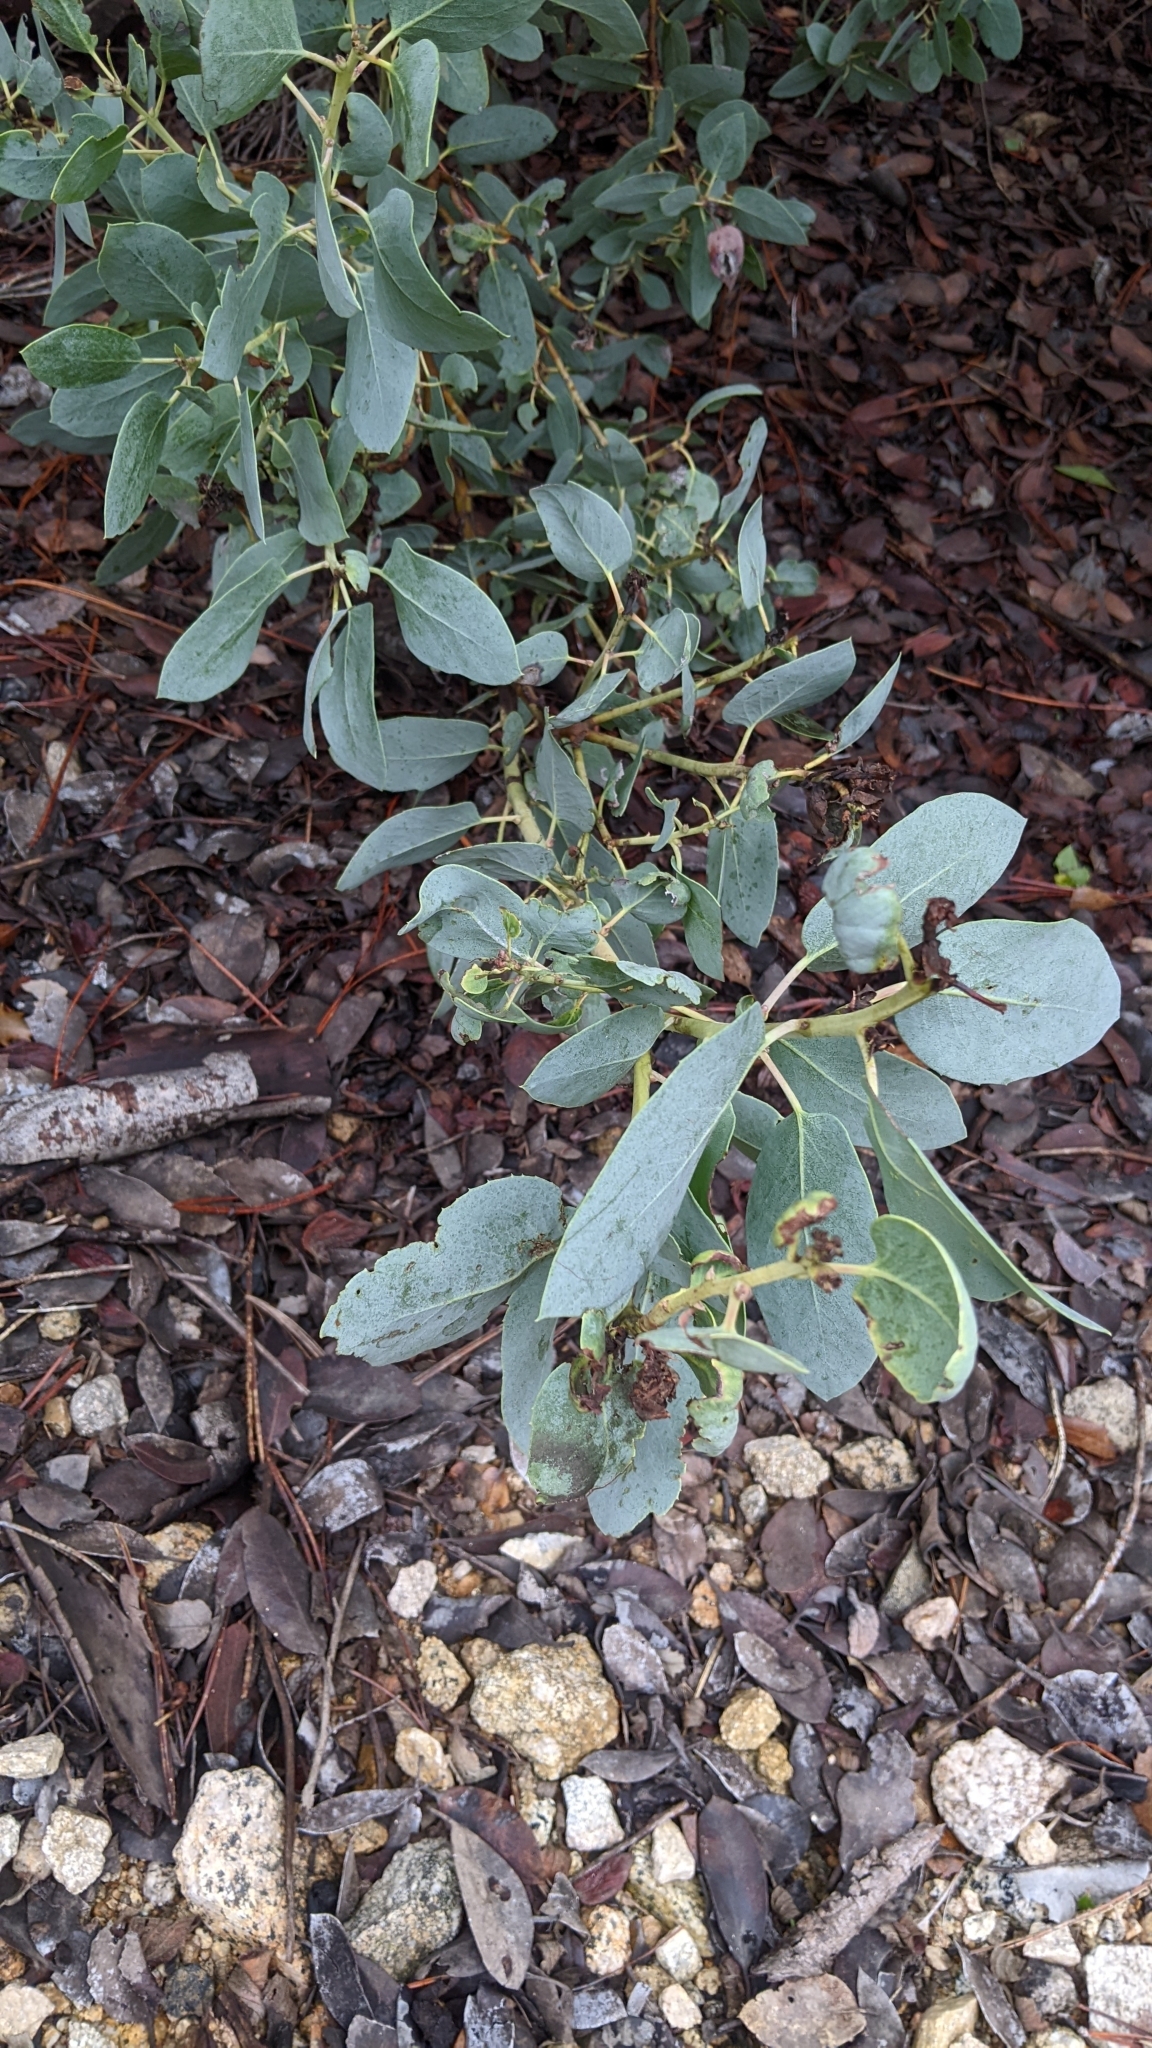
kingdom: Plantae
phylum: Tracheophyta
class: Magnoliopsida
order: Ericales
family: Ericaceae
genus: Arctostaphylos
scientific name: Arctostaphylos glauca
